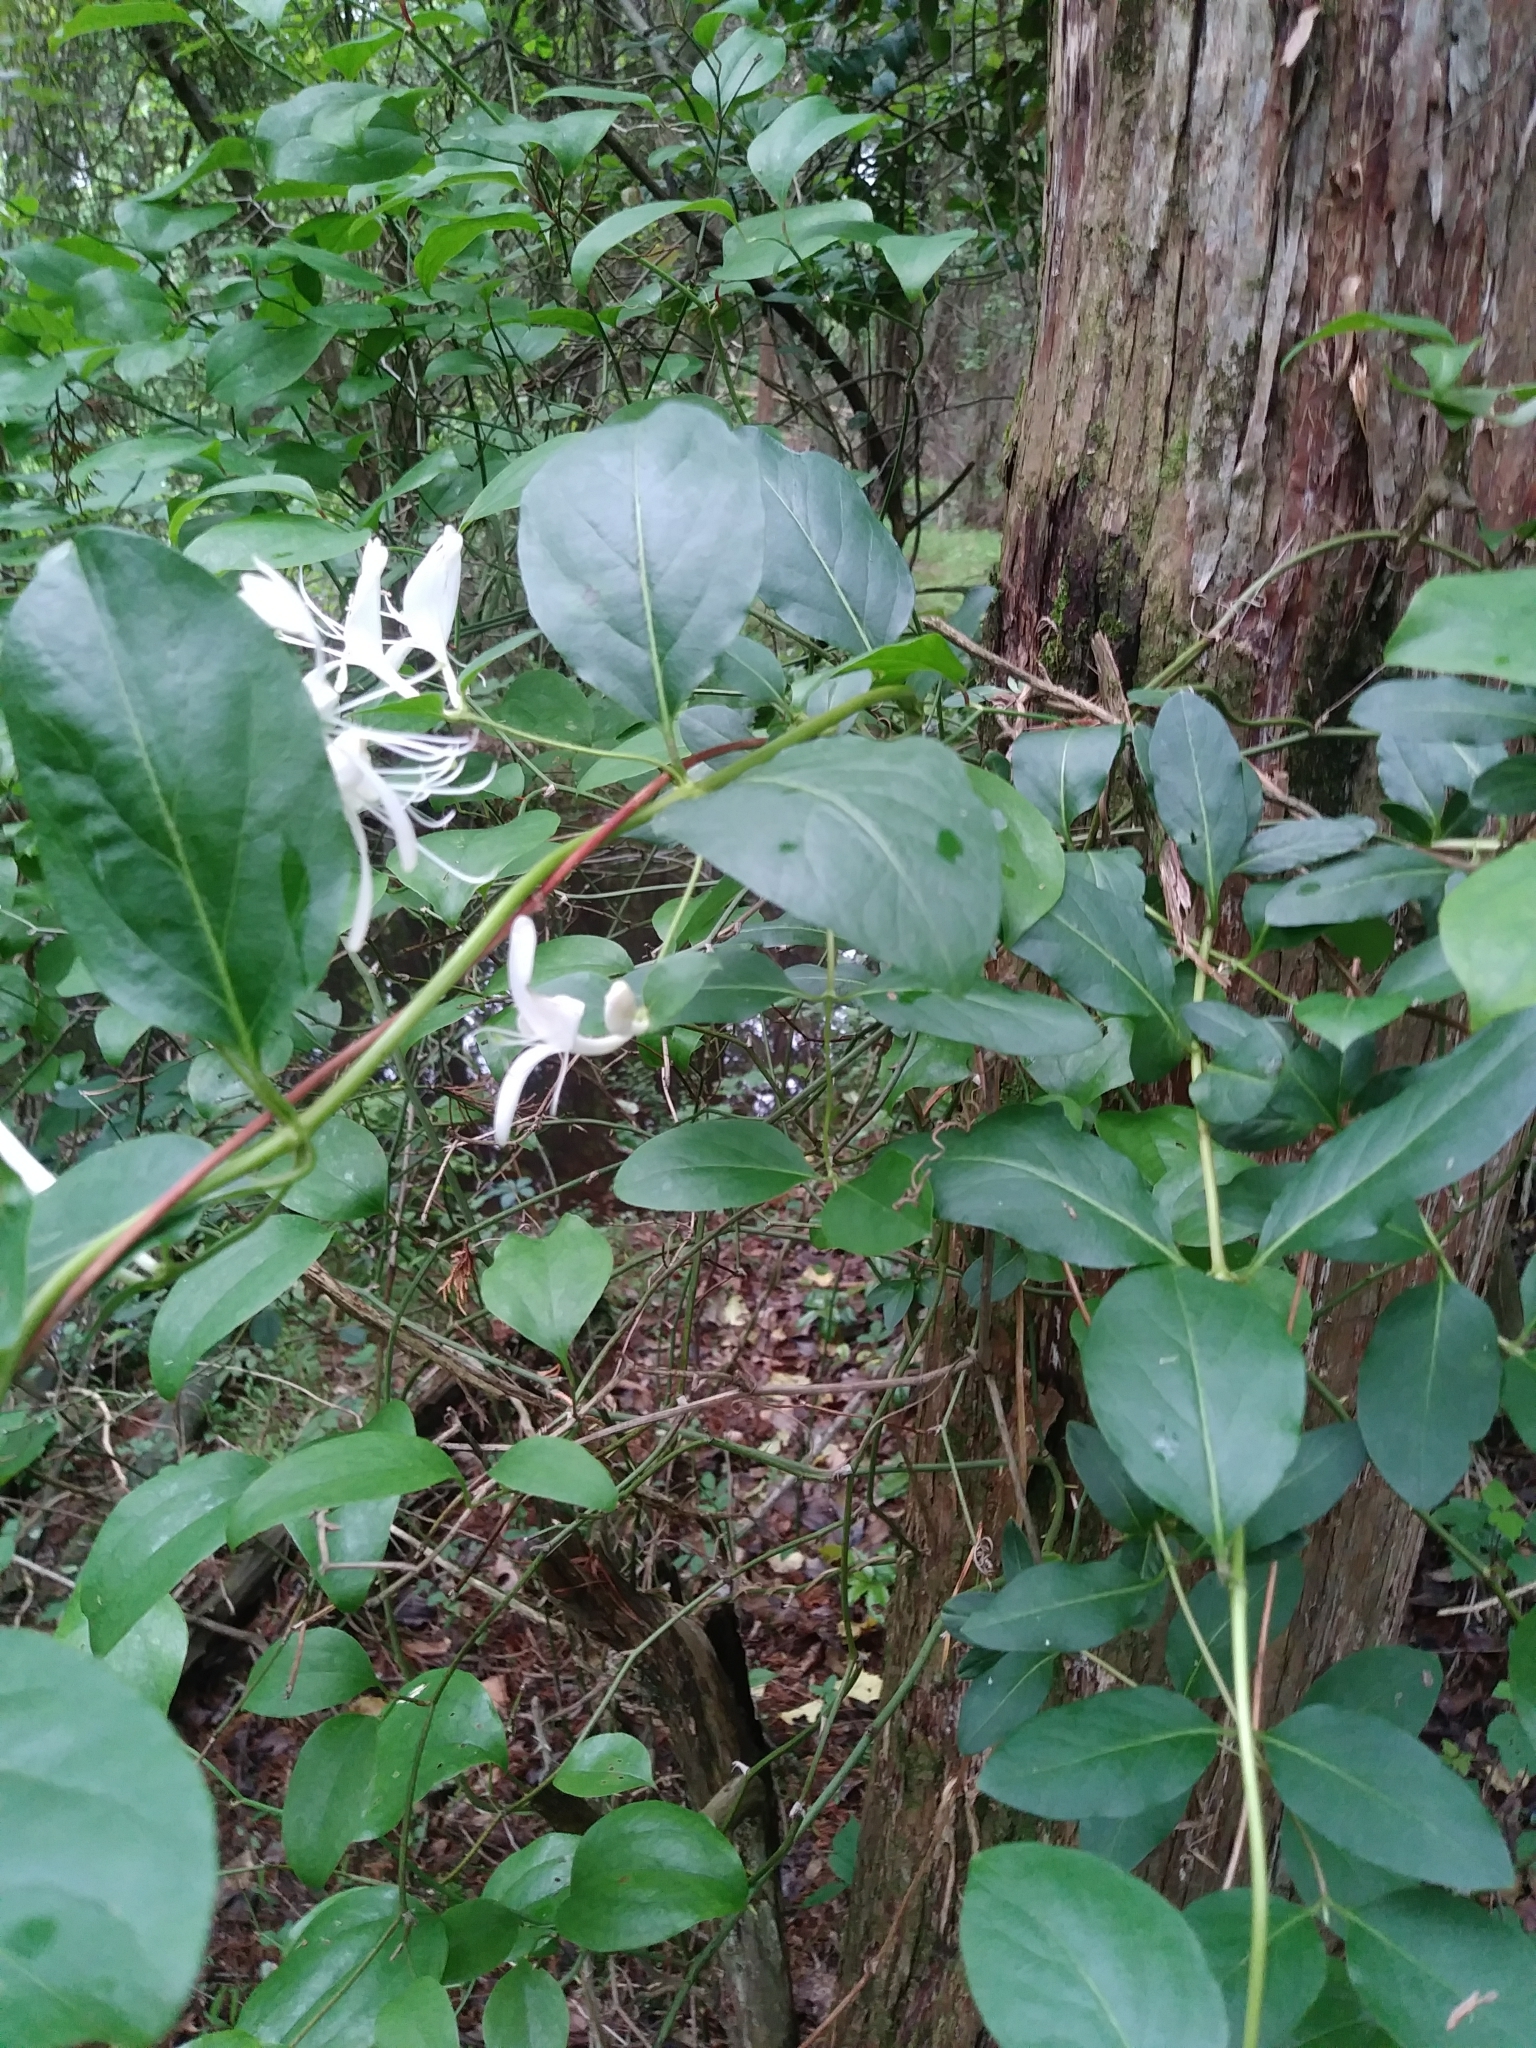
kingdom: Plantae
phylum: Tracheophyta
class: Magnoliopsida
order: Dipsacales
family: Caprifoliaceae
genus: Lonicera
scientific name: Lonicera japonica
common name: Japanese honeysuckle
